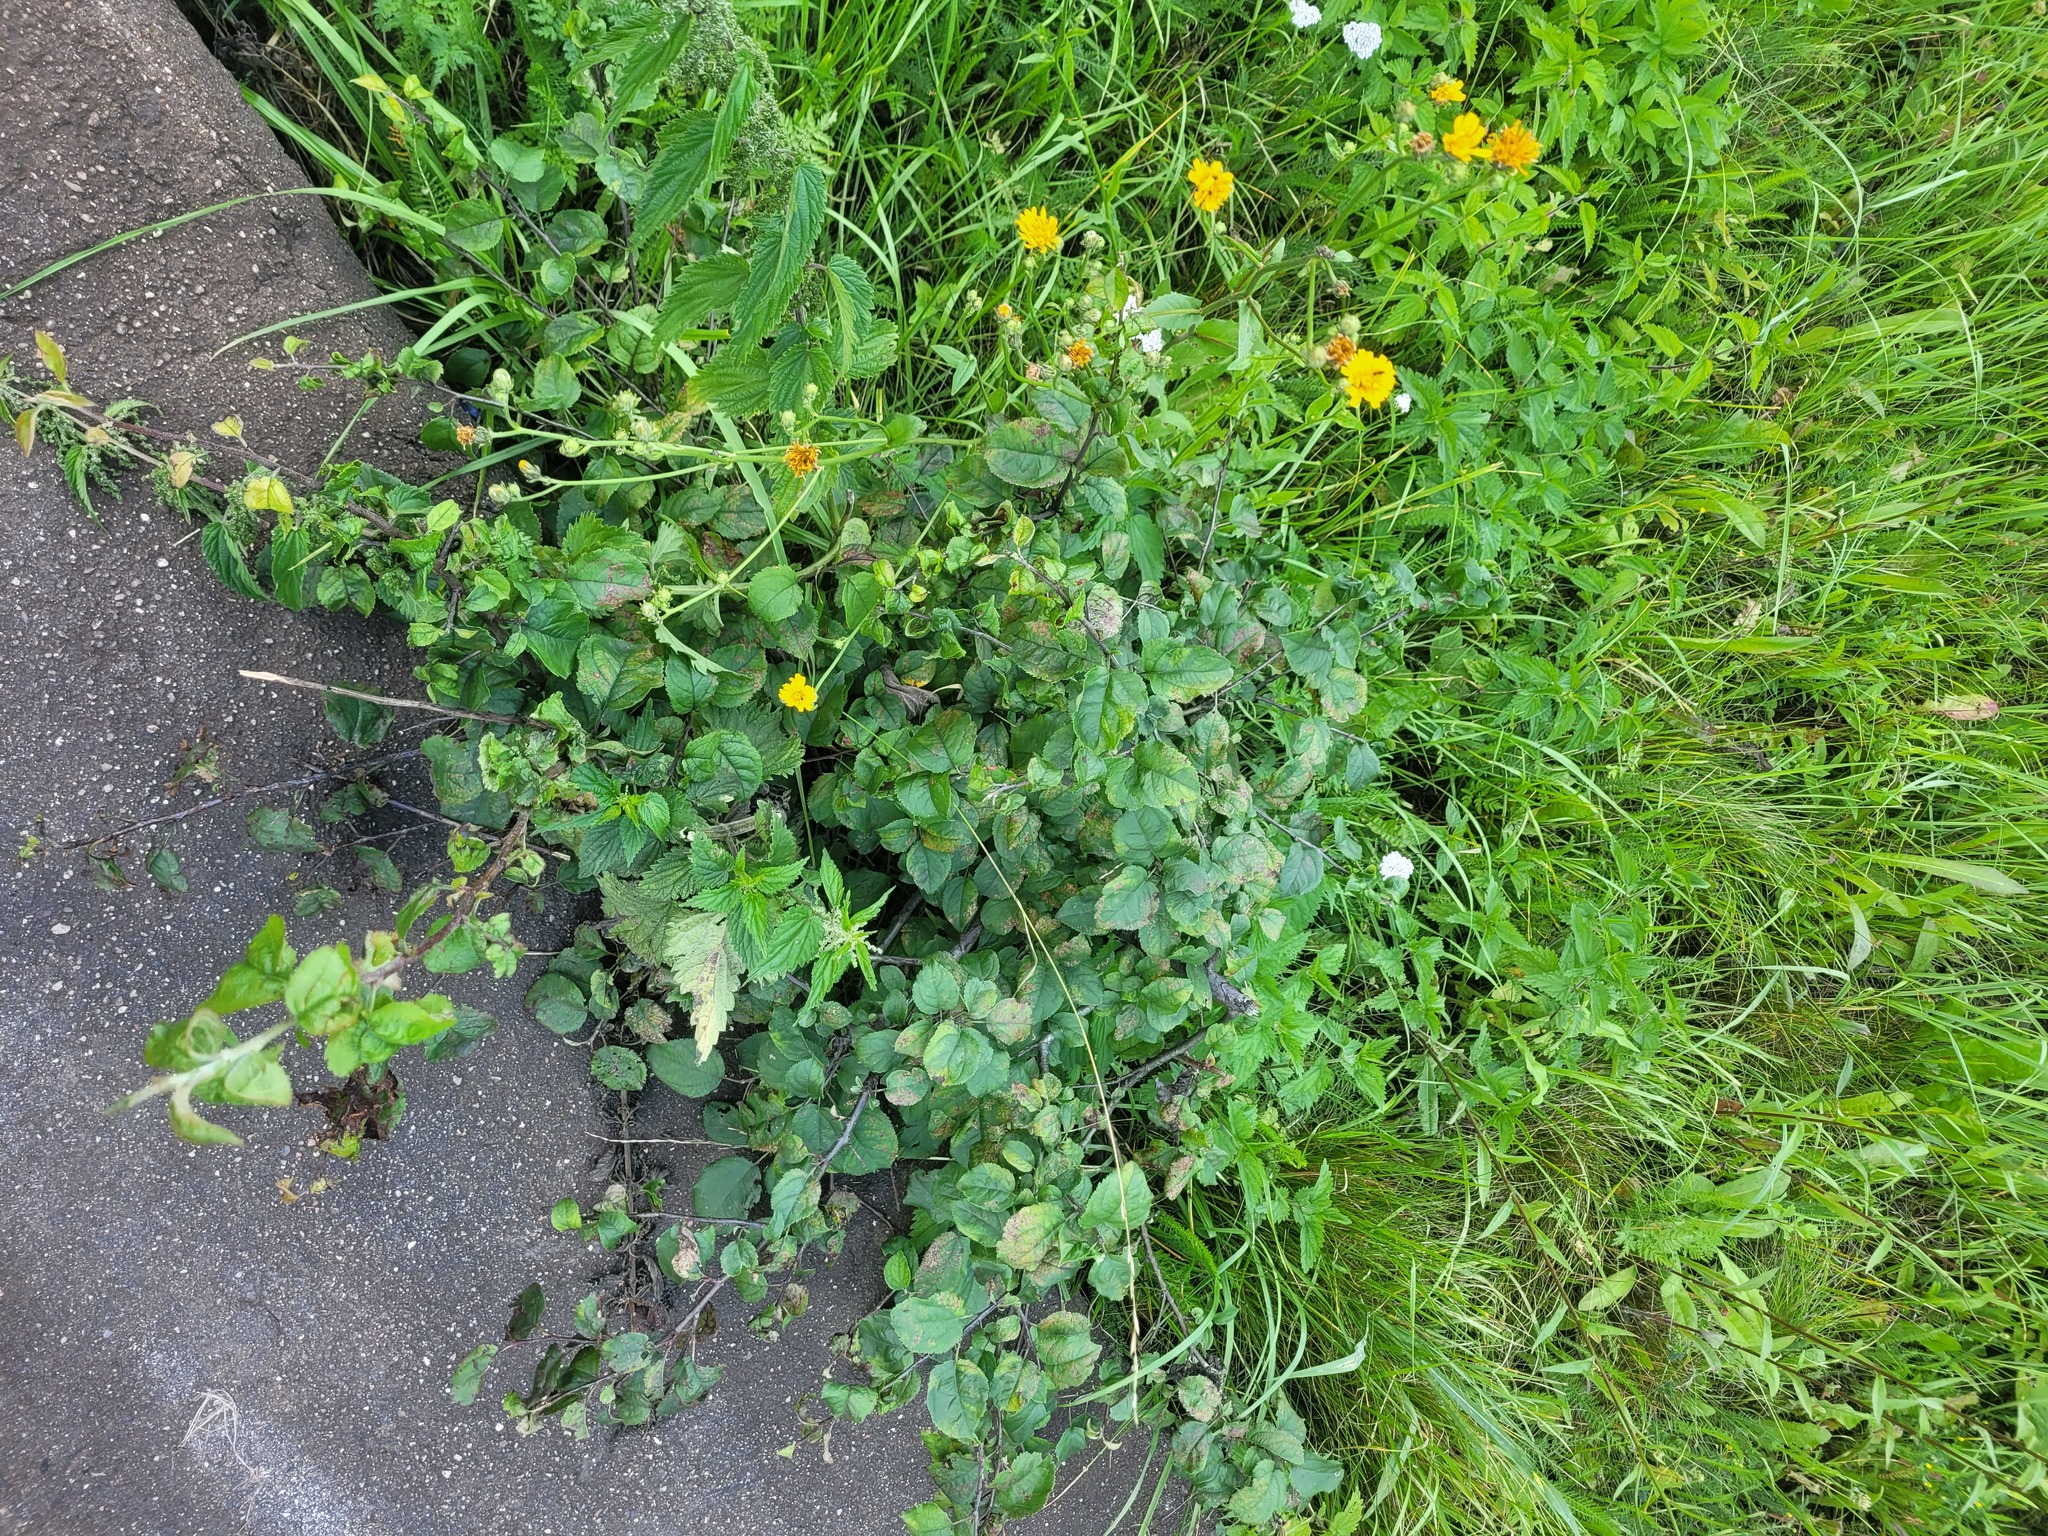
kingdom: Plantae
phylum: Tracheophyta
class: Magnoliopsida
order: Rosales
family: Rosaceae
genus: Malus
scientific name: Malus domestica
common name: Apple
